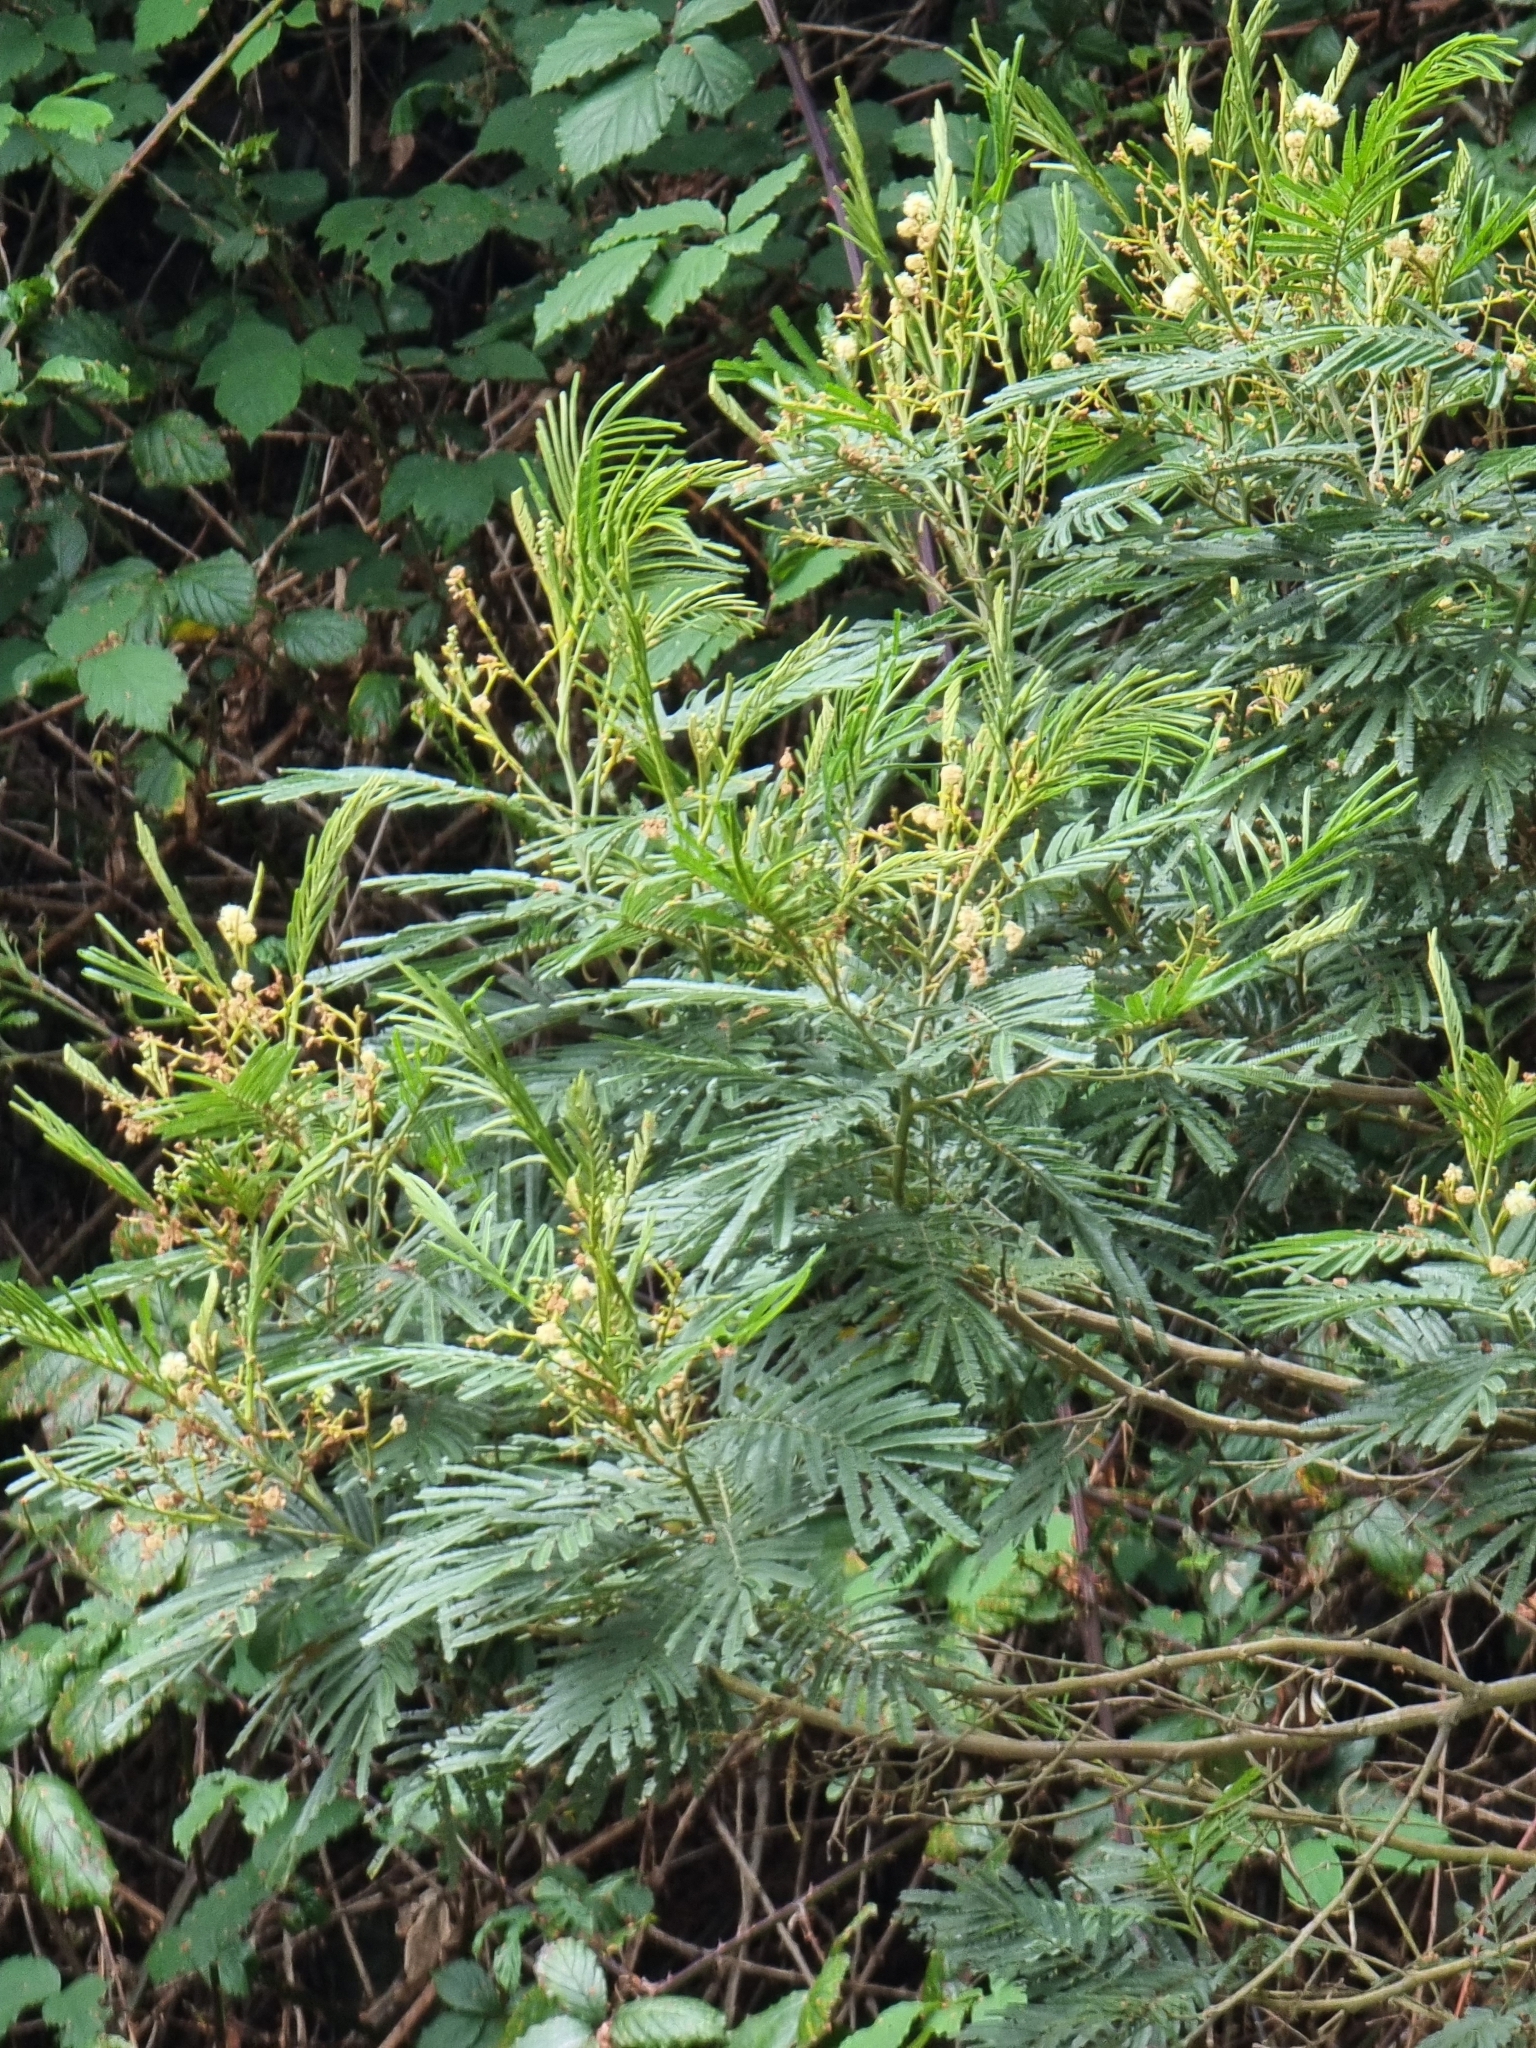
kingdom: Plantae
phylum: Tracheophyta
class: Magnoliopsida
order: Fabales
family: Fabaceae
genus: Acacia
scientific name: Acacia mearnsii
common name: Black wattle
